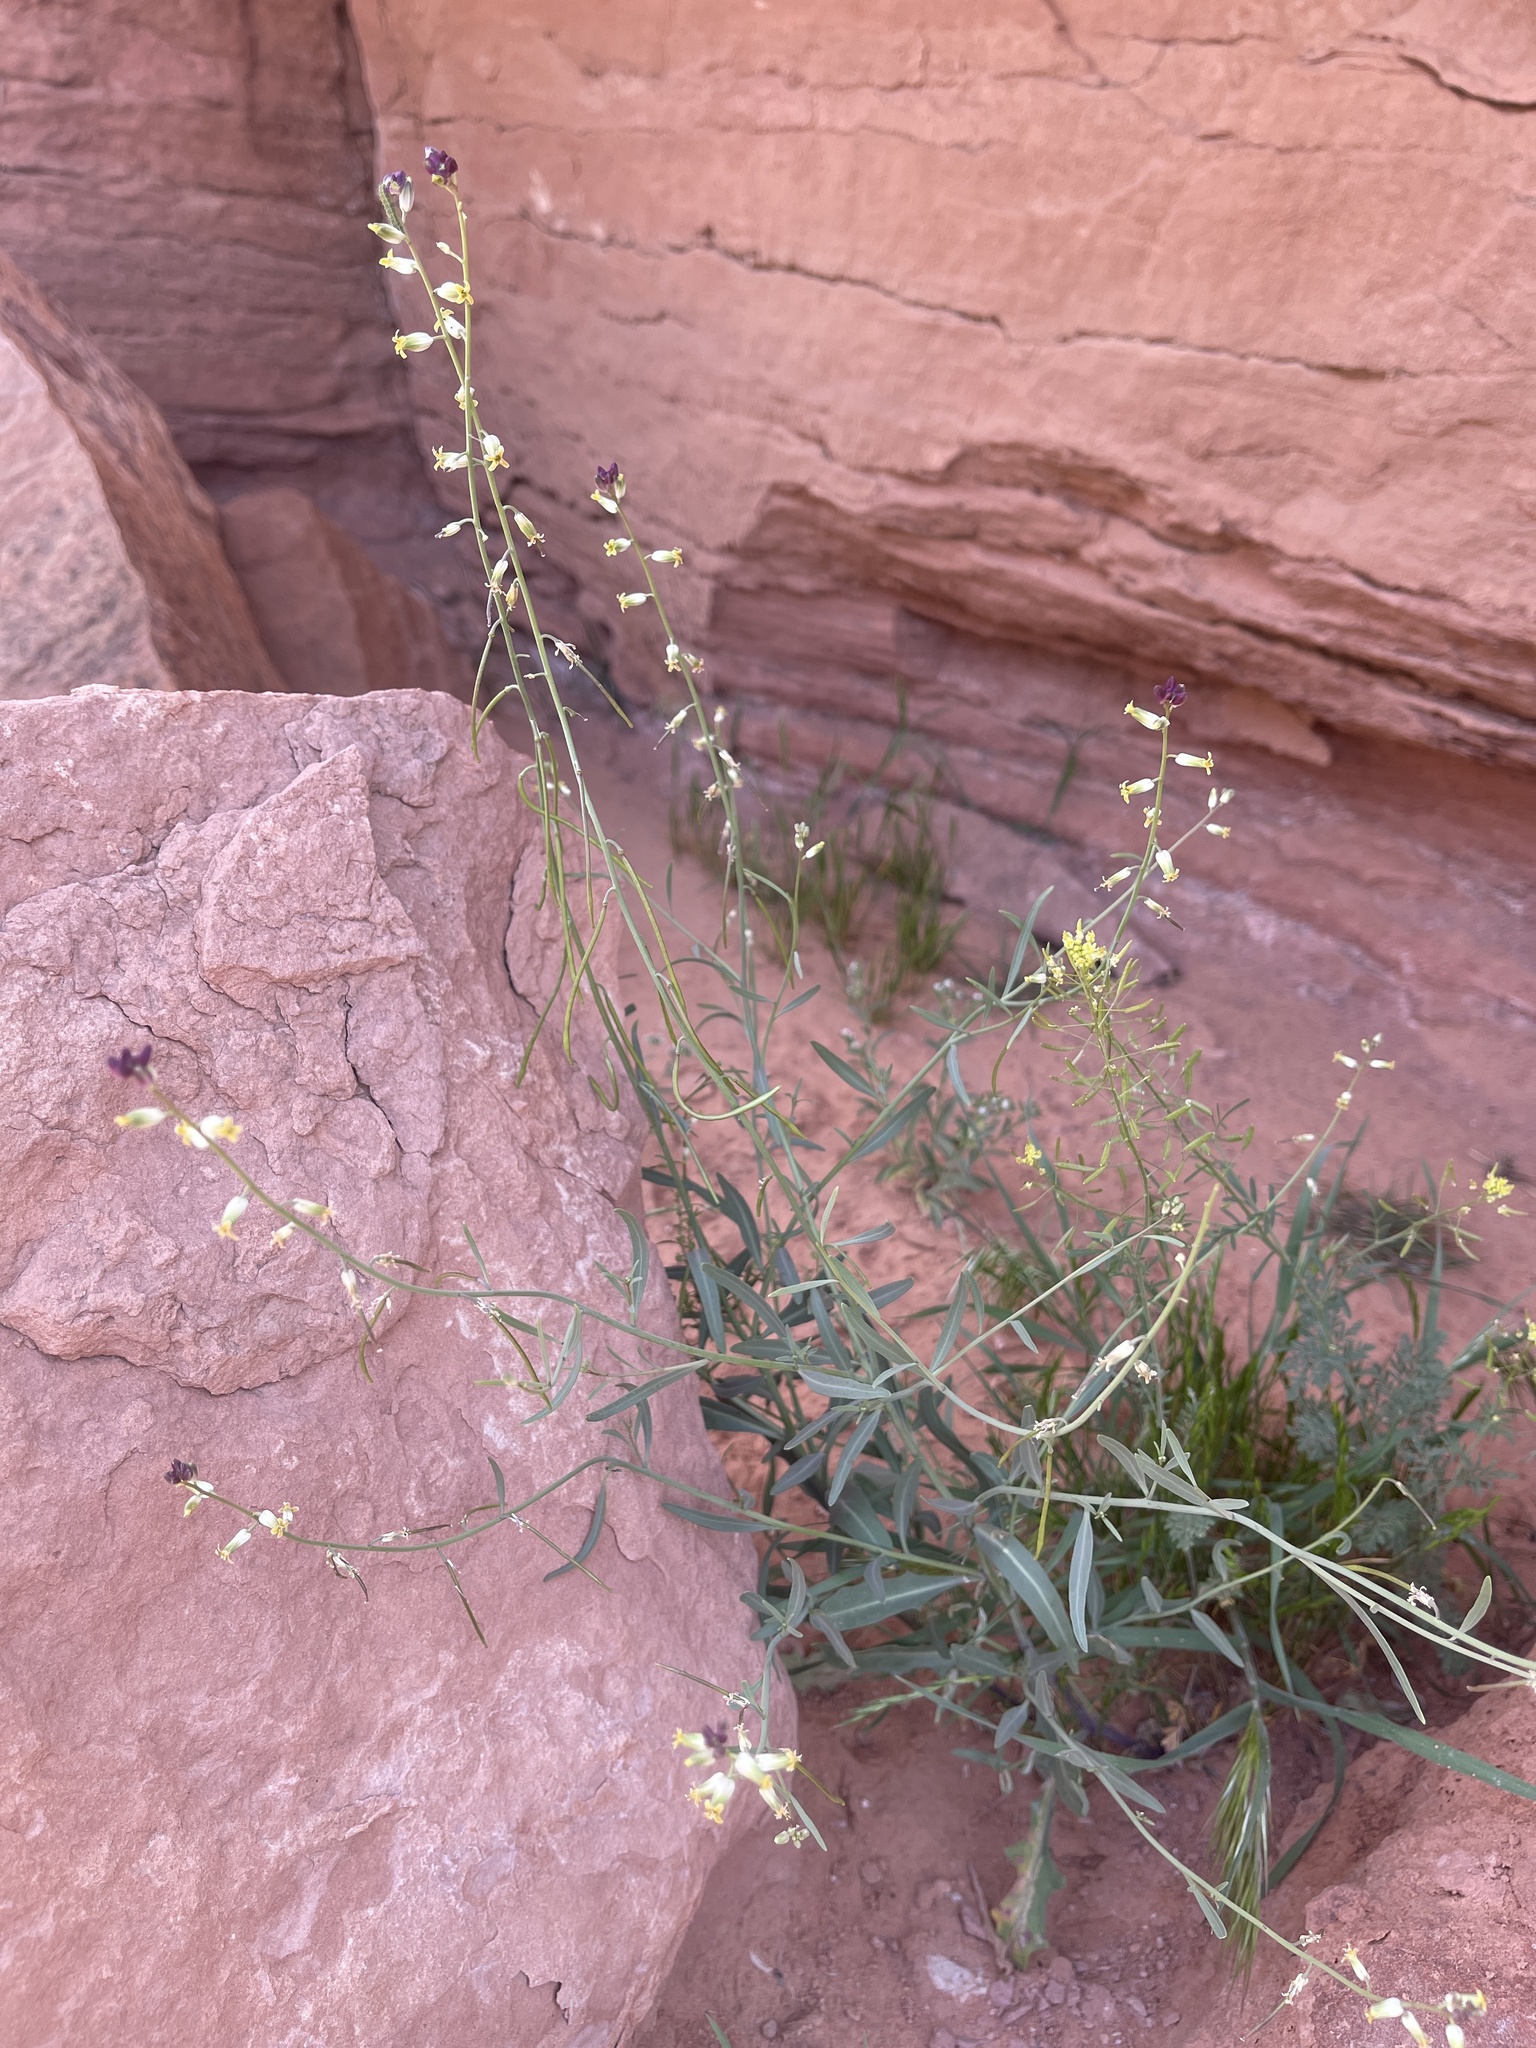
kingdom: Plantae
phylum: Tracheophyta
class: Magnoliopsida
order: Brassicales
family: Brassicaceae
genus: Streptanthus
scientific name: Streptanthus longirostris
